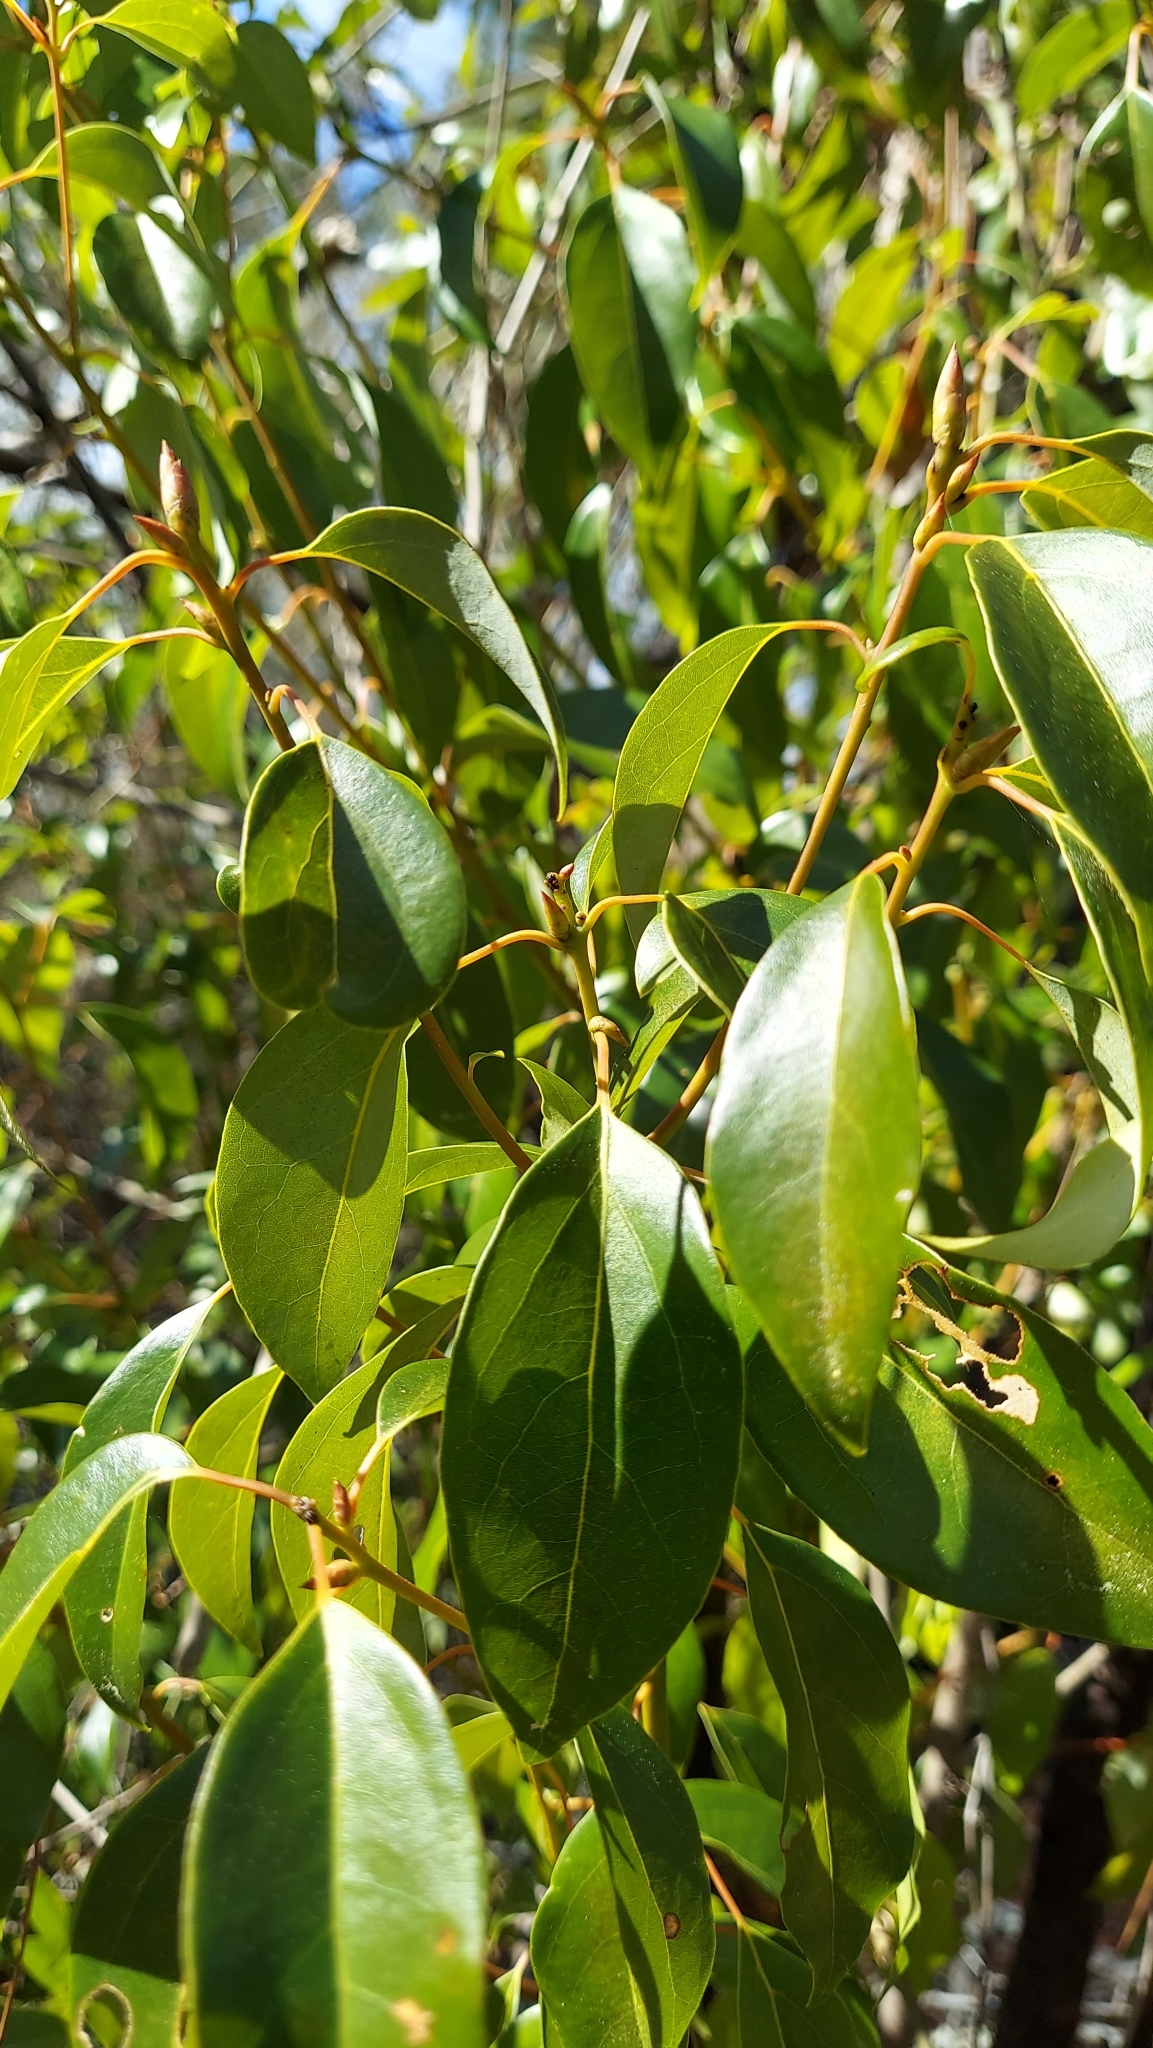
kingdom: Plantae
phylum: Tracheophyta
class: Magnoliopsida
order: Laurales
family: Lauraceae
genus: Cinnamomum
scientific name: Cinnamomum camphora
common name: Camphortree
